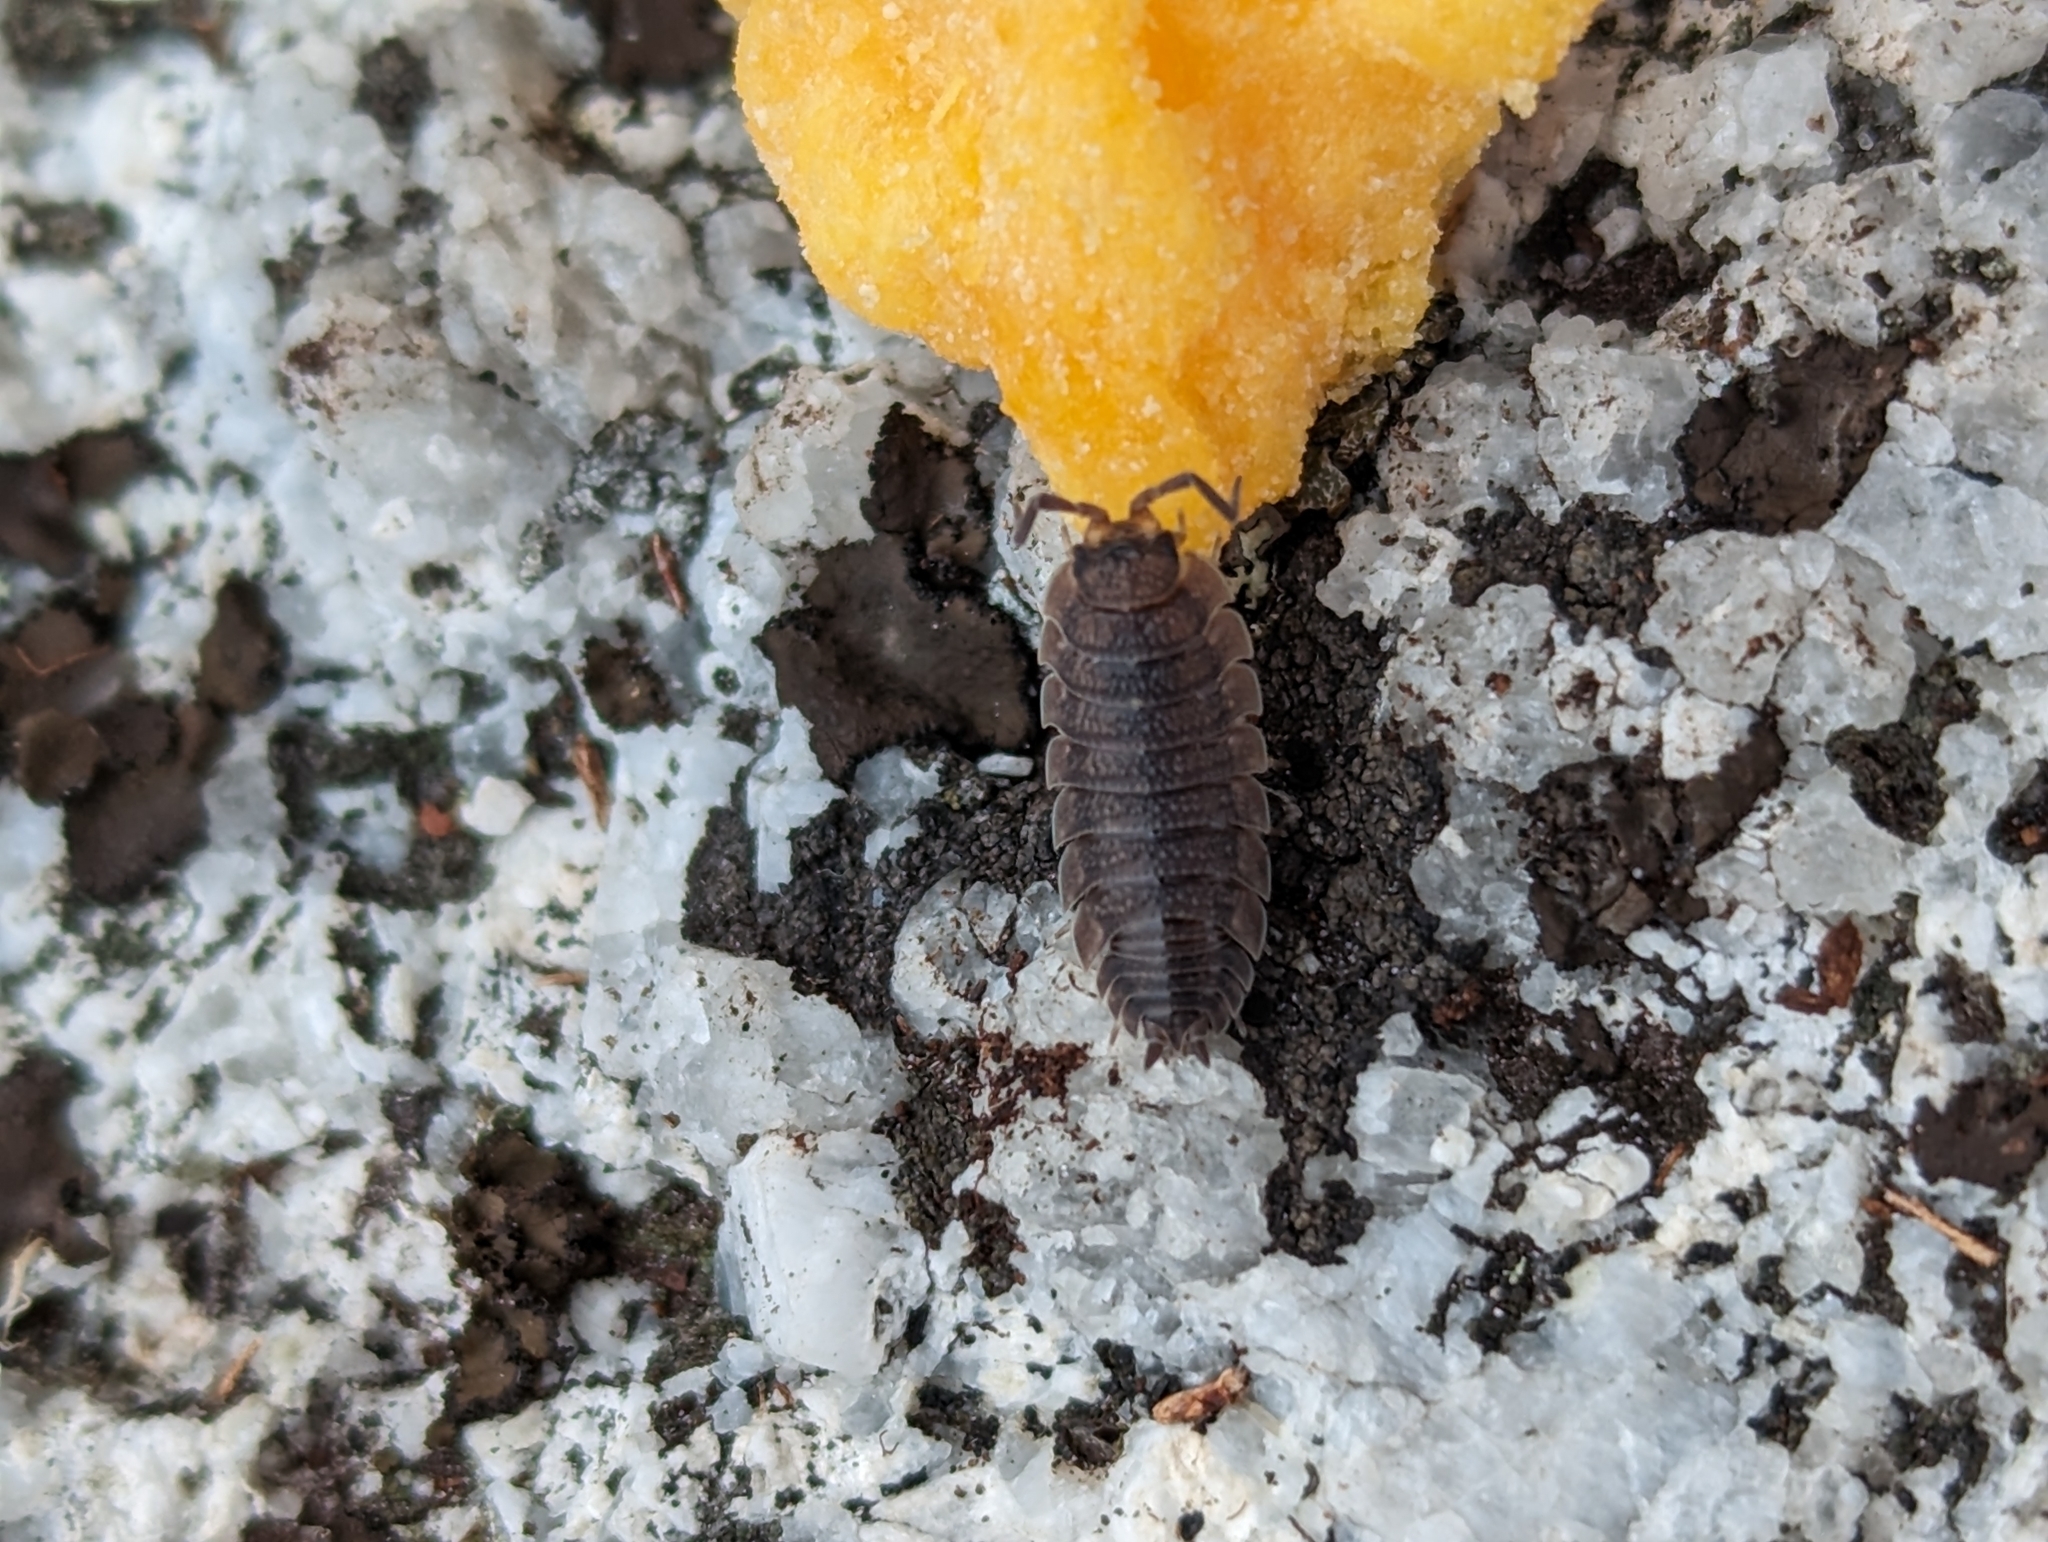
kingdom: Animalia
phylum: Arthropoda
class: Malacostraca
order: Isopoda
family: Porcellionidae
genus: Porcellio
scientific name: Porcellio scaber
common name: Common rough woodlouse
